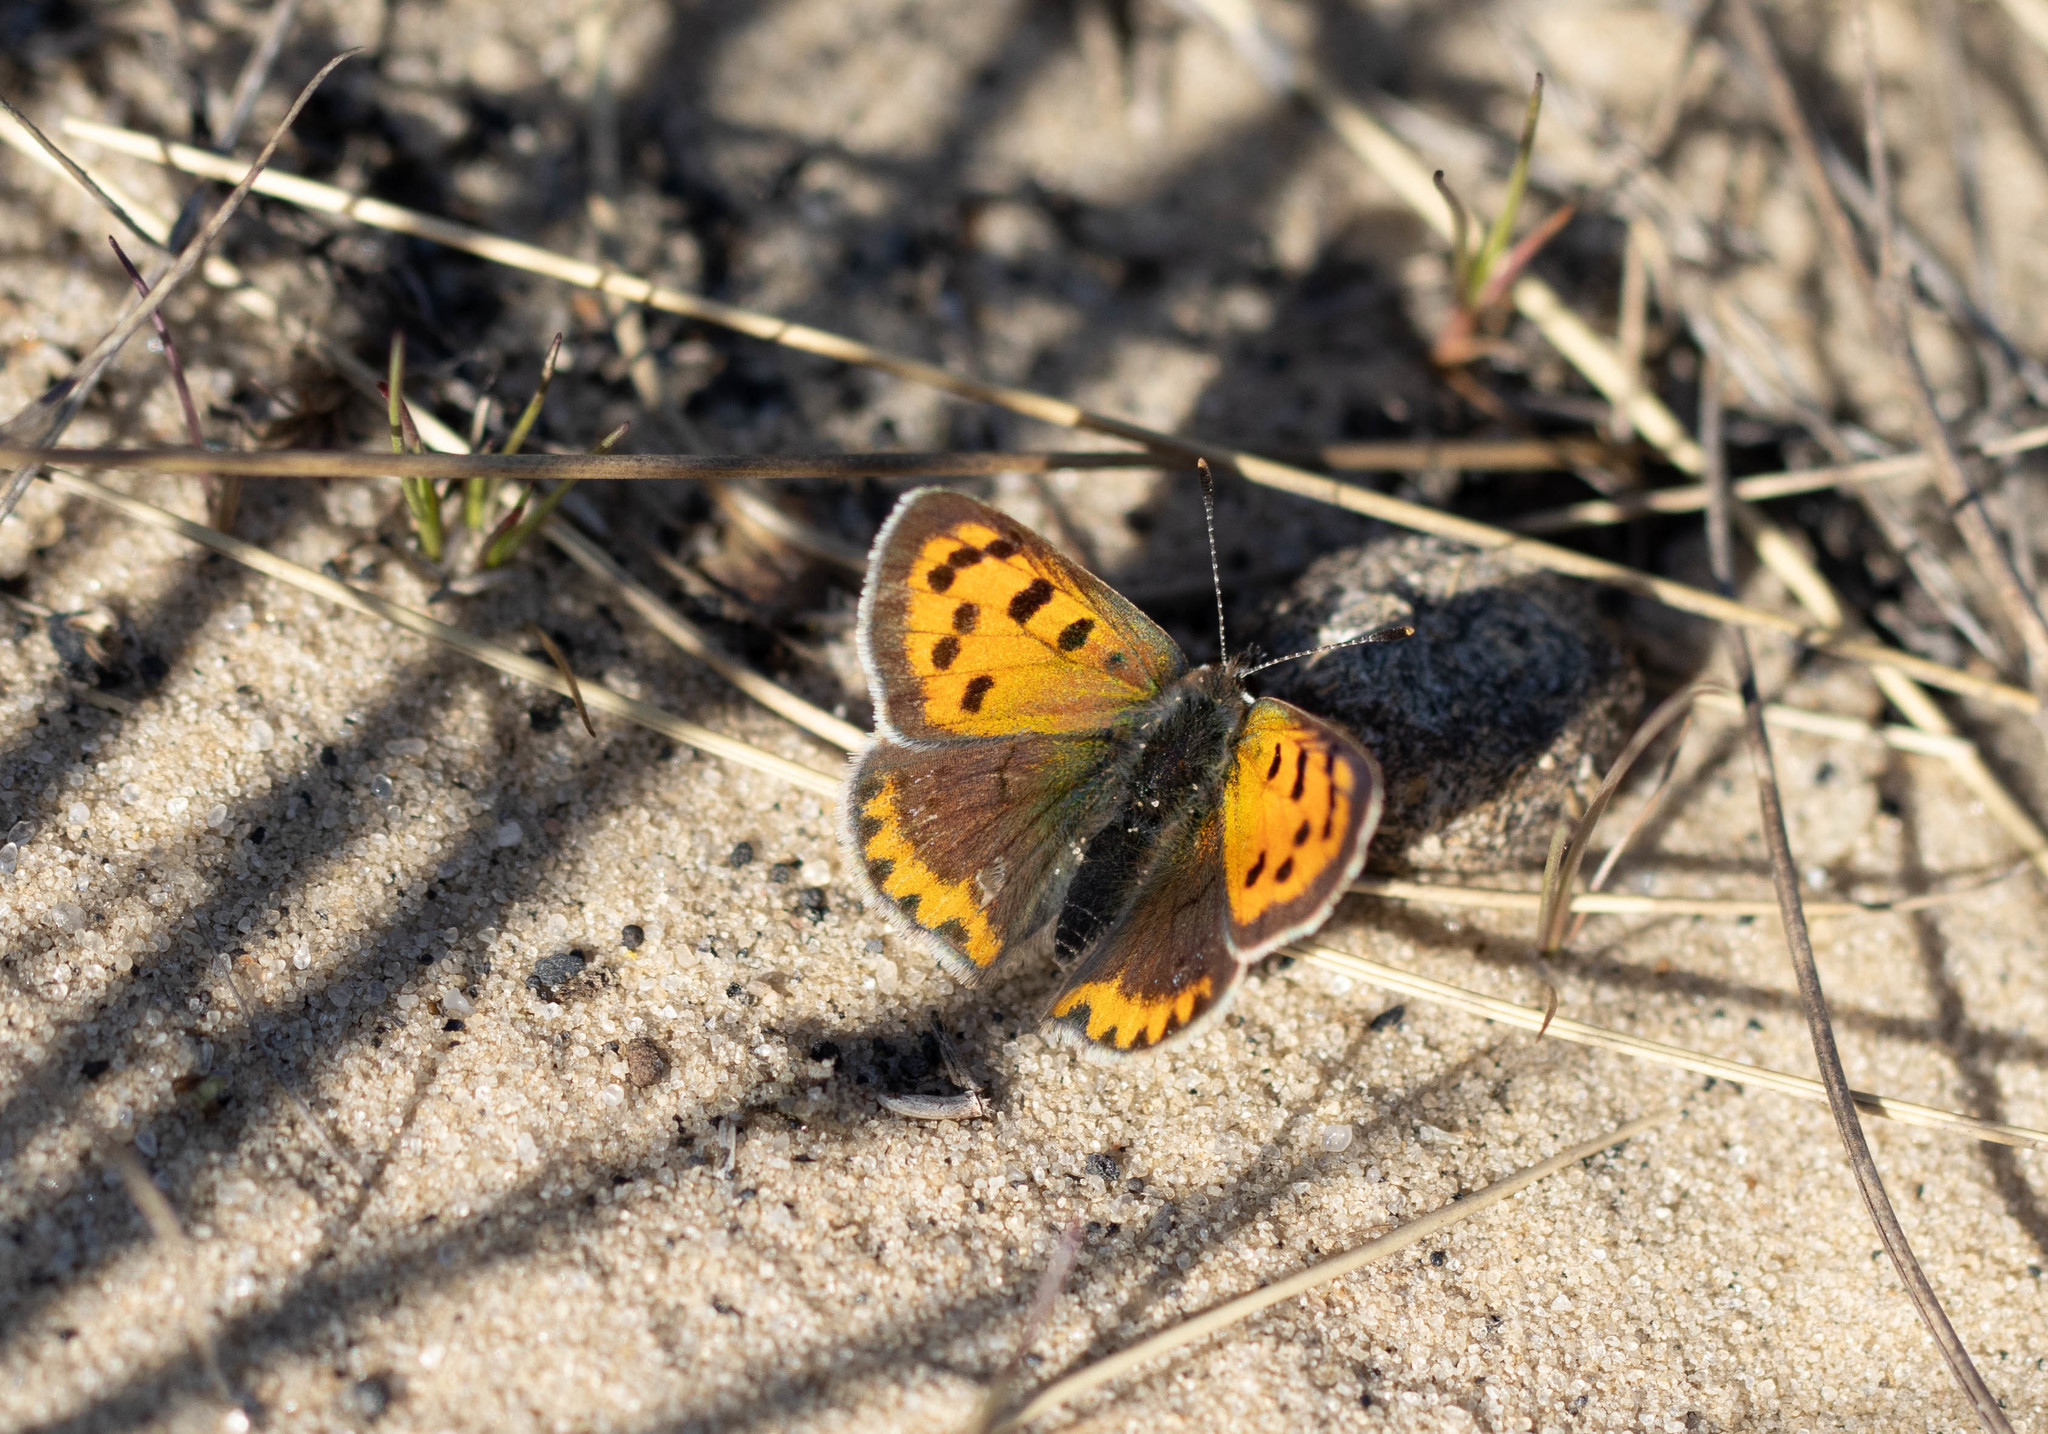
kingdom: Animalia
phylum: Arthropoda
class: Insecta
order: Lepidoptera
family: Lycaenidae
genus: Lycaena
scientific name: Lycaena phlaeas
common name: Small copper
